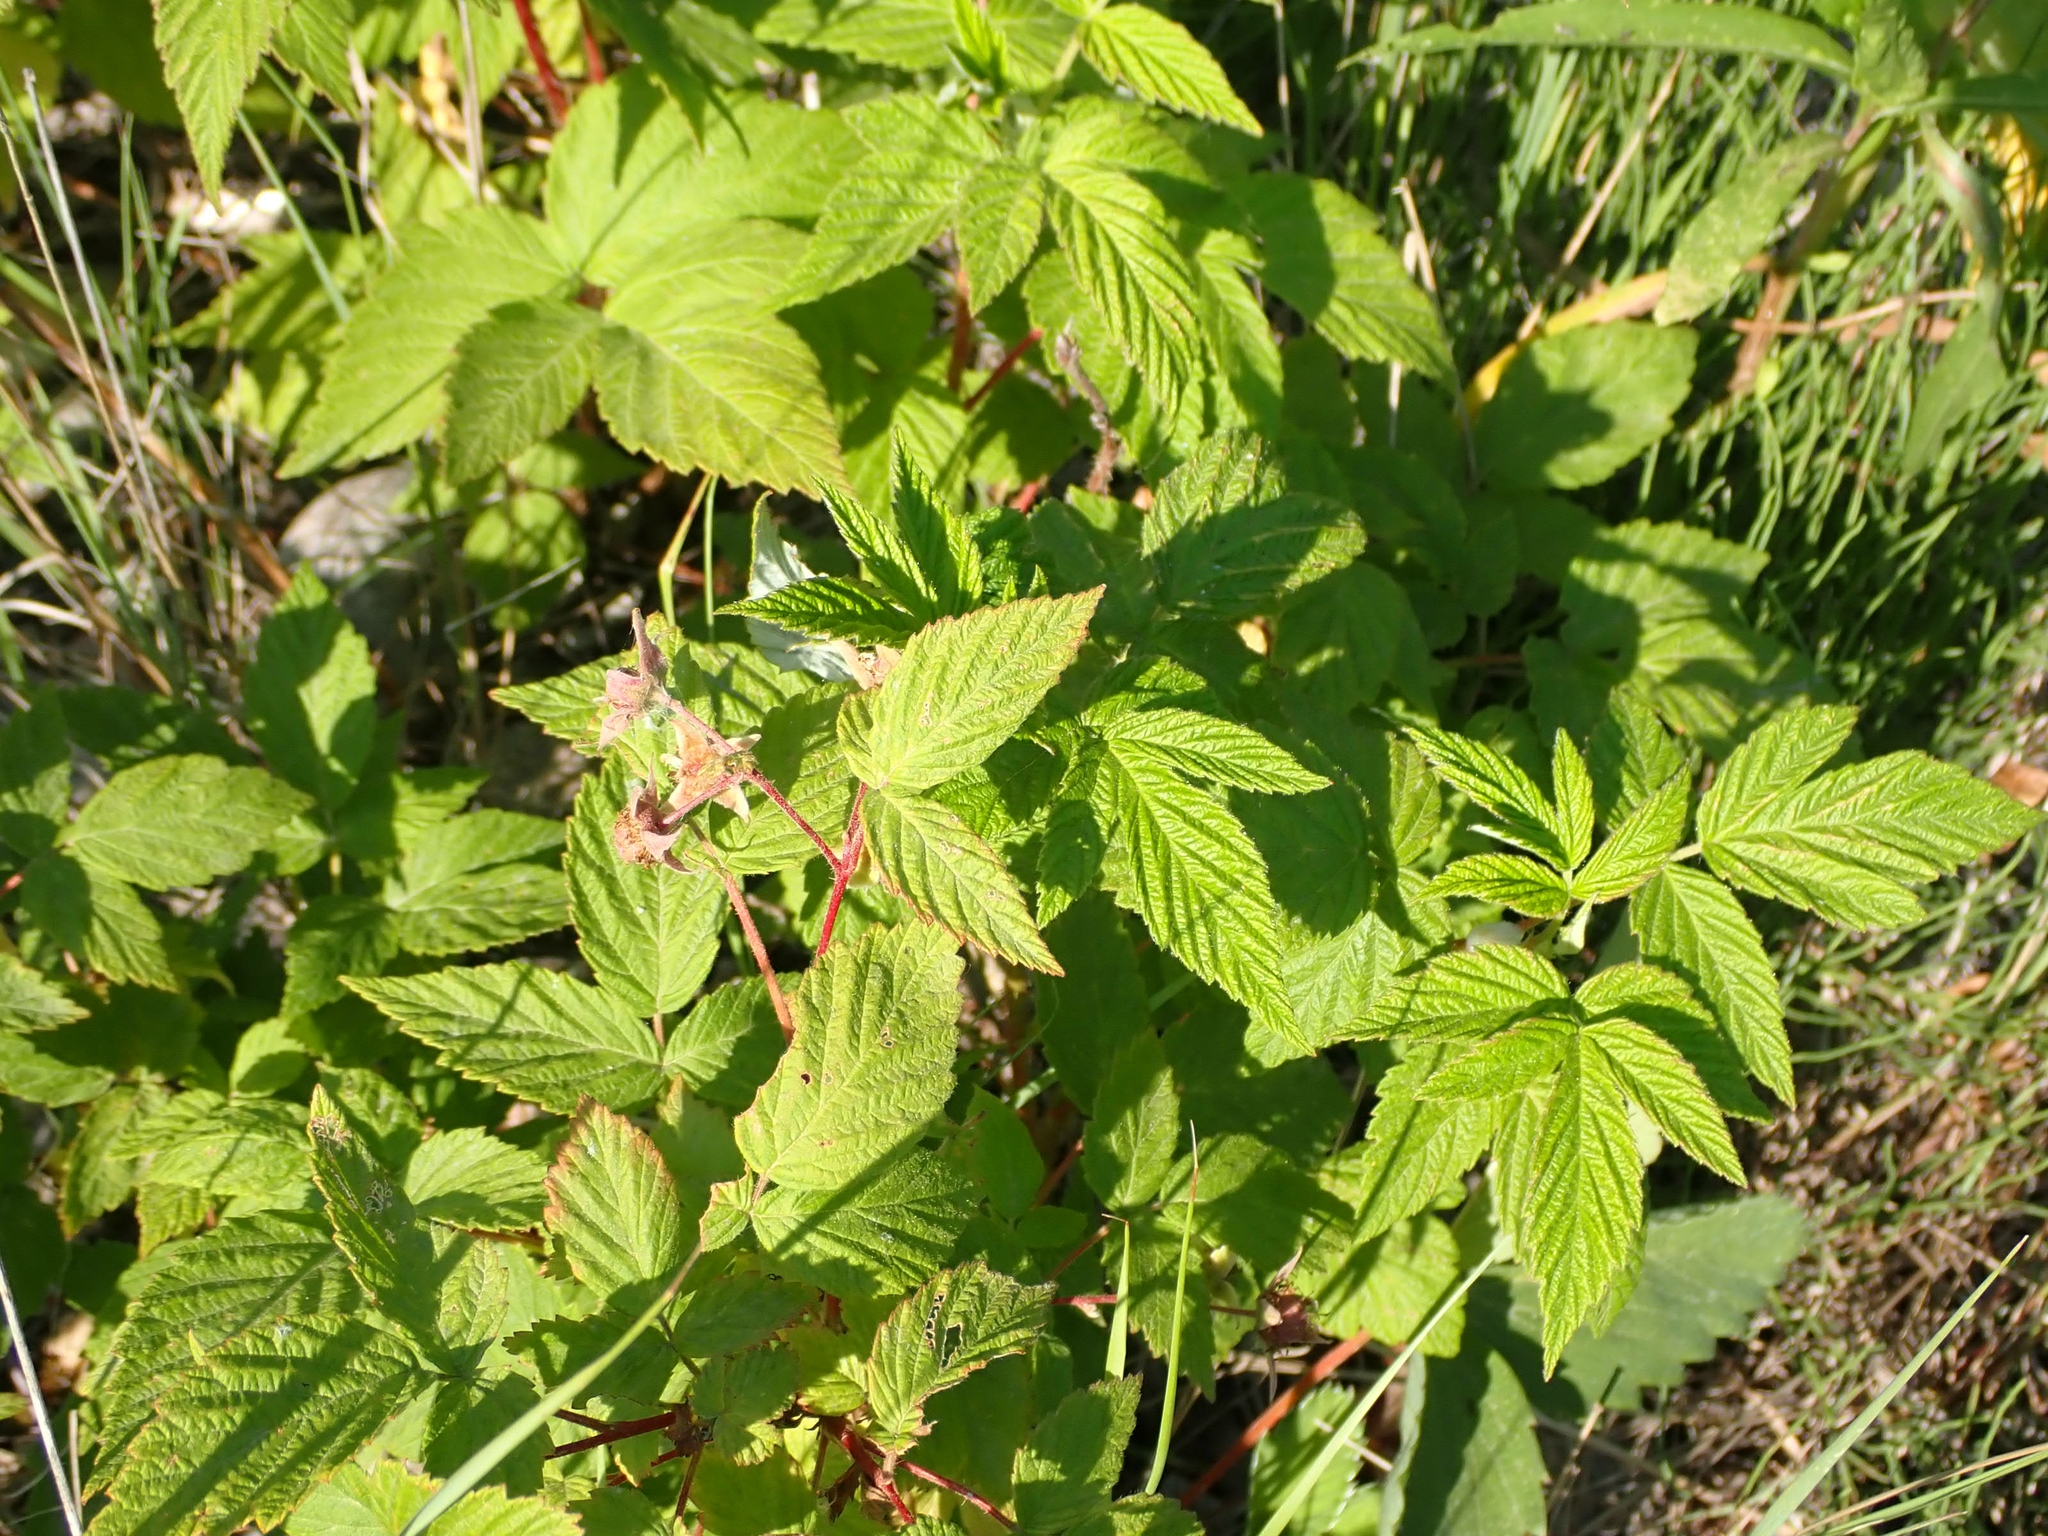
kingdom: Plantae
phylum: Tracheophyta
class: Magnoliopsida
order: Rosales
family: Rosaceae
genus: Rubus
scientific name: Rubus idaeus
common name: Raspberry
